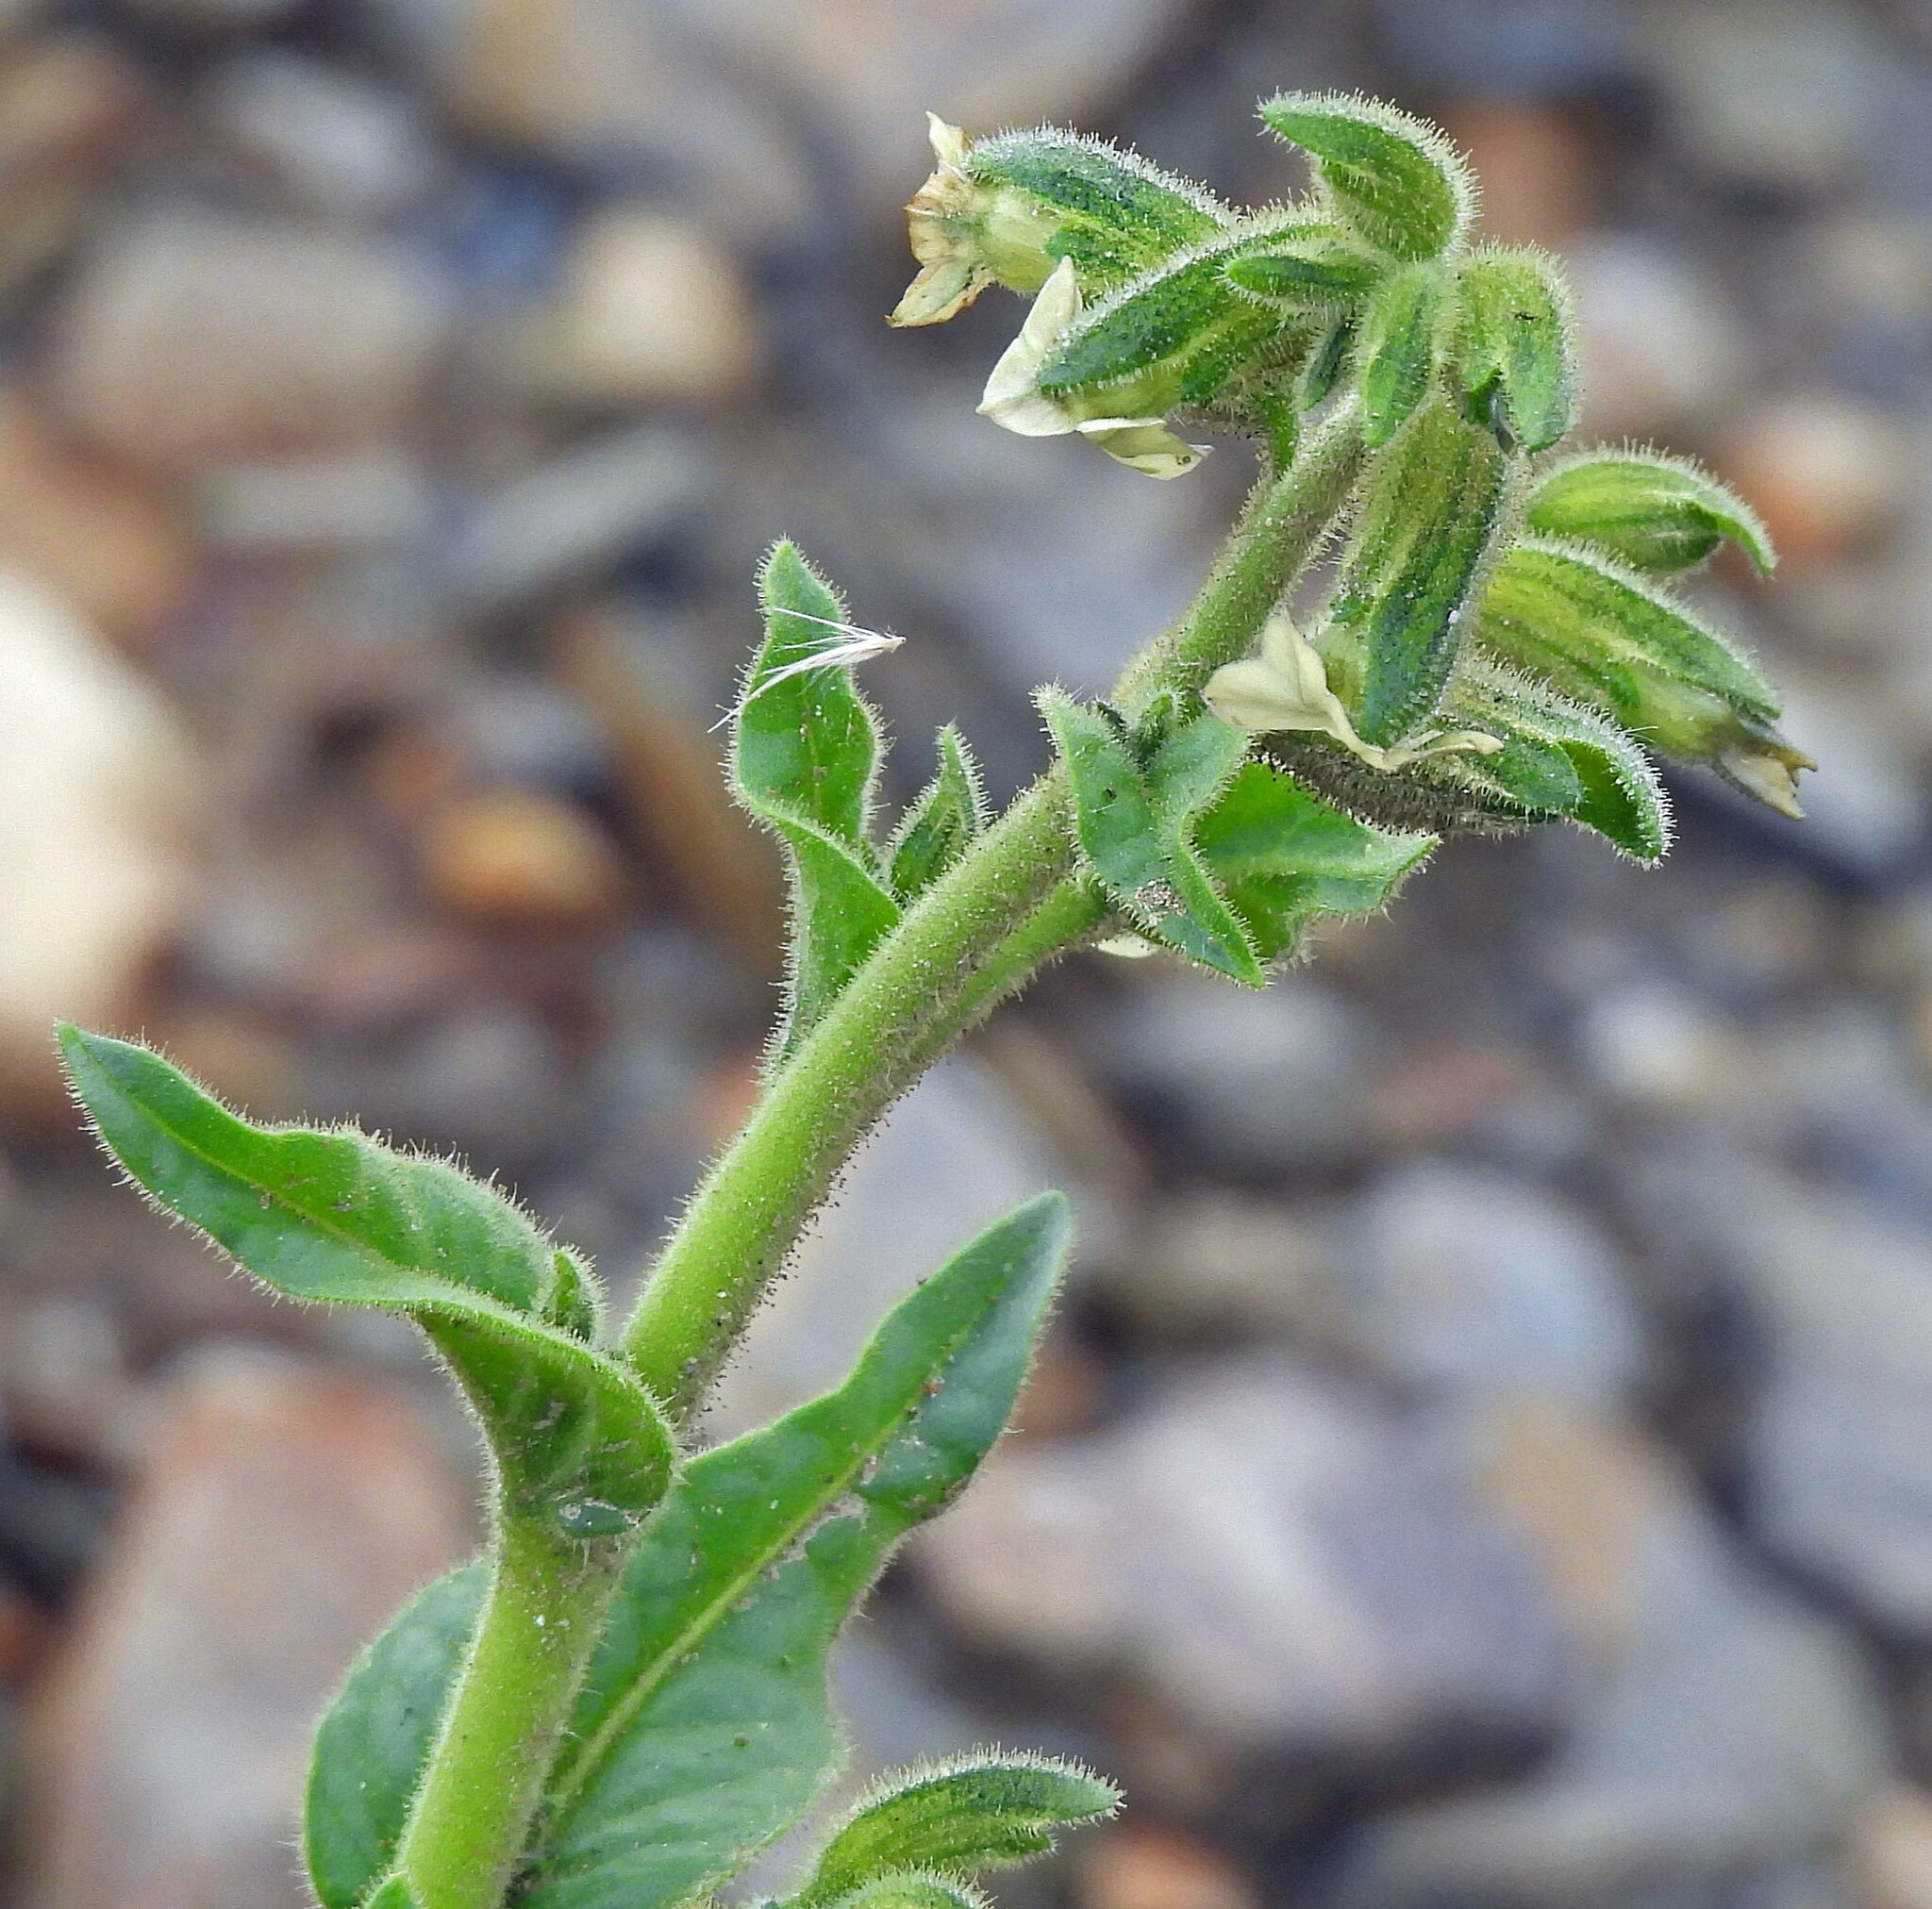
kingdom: Plantae
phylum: Tracheophyta
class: Magnoliopsida
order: Solanales
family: Solanaceae
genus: Nicotiana
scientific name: Nicotiana undulata
